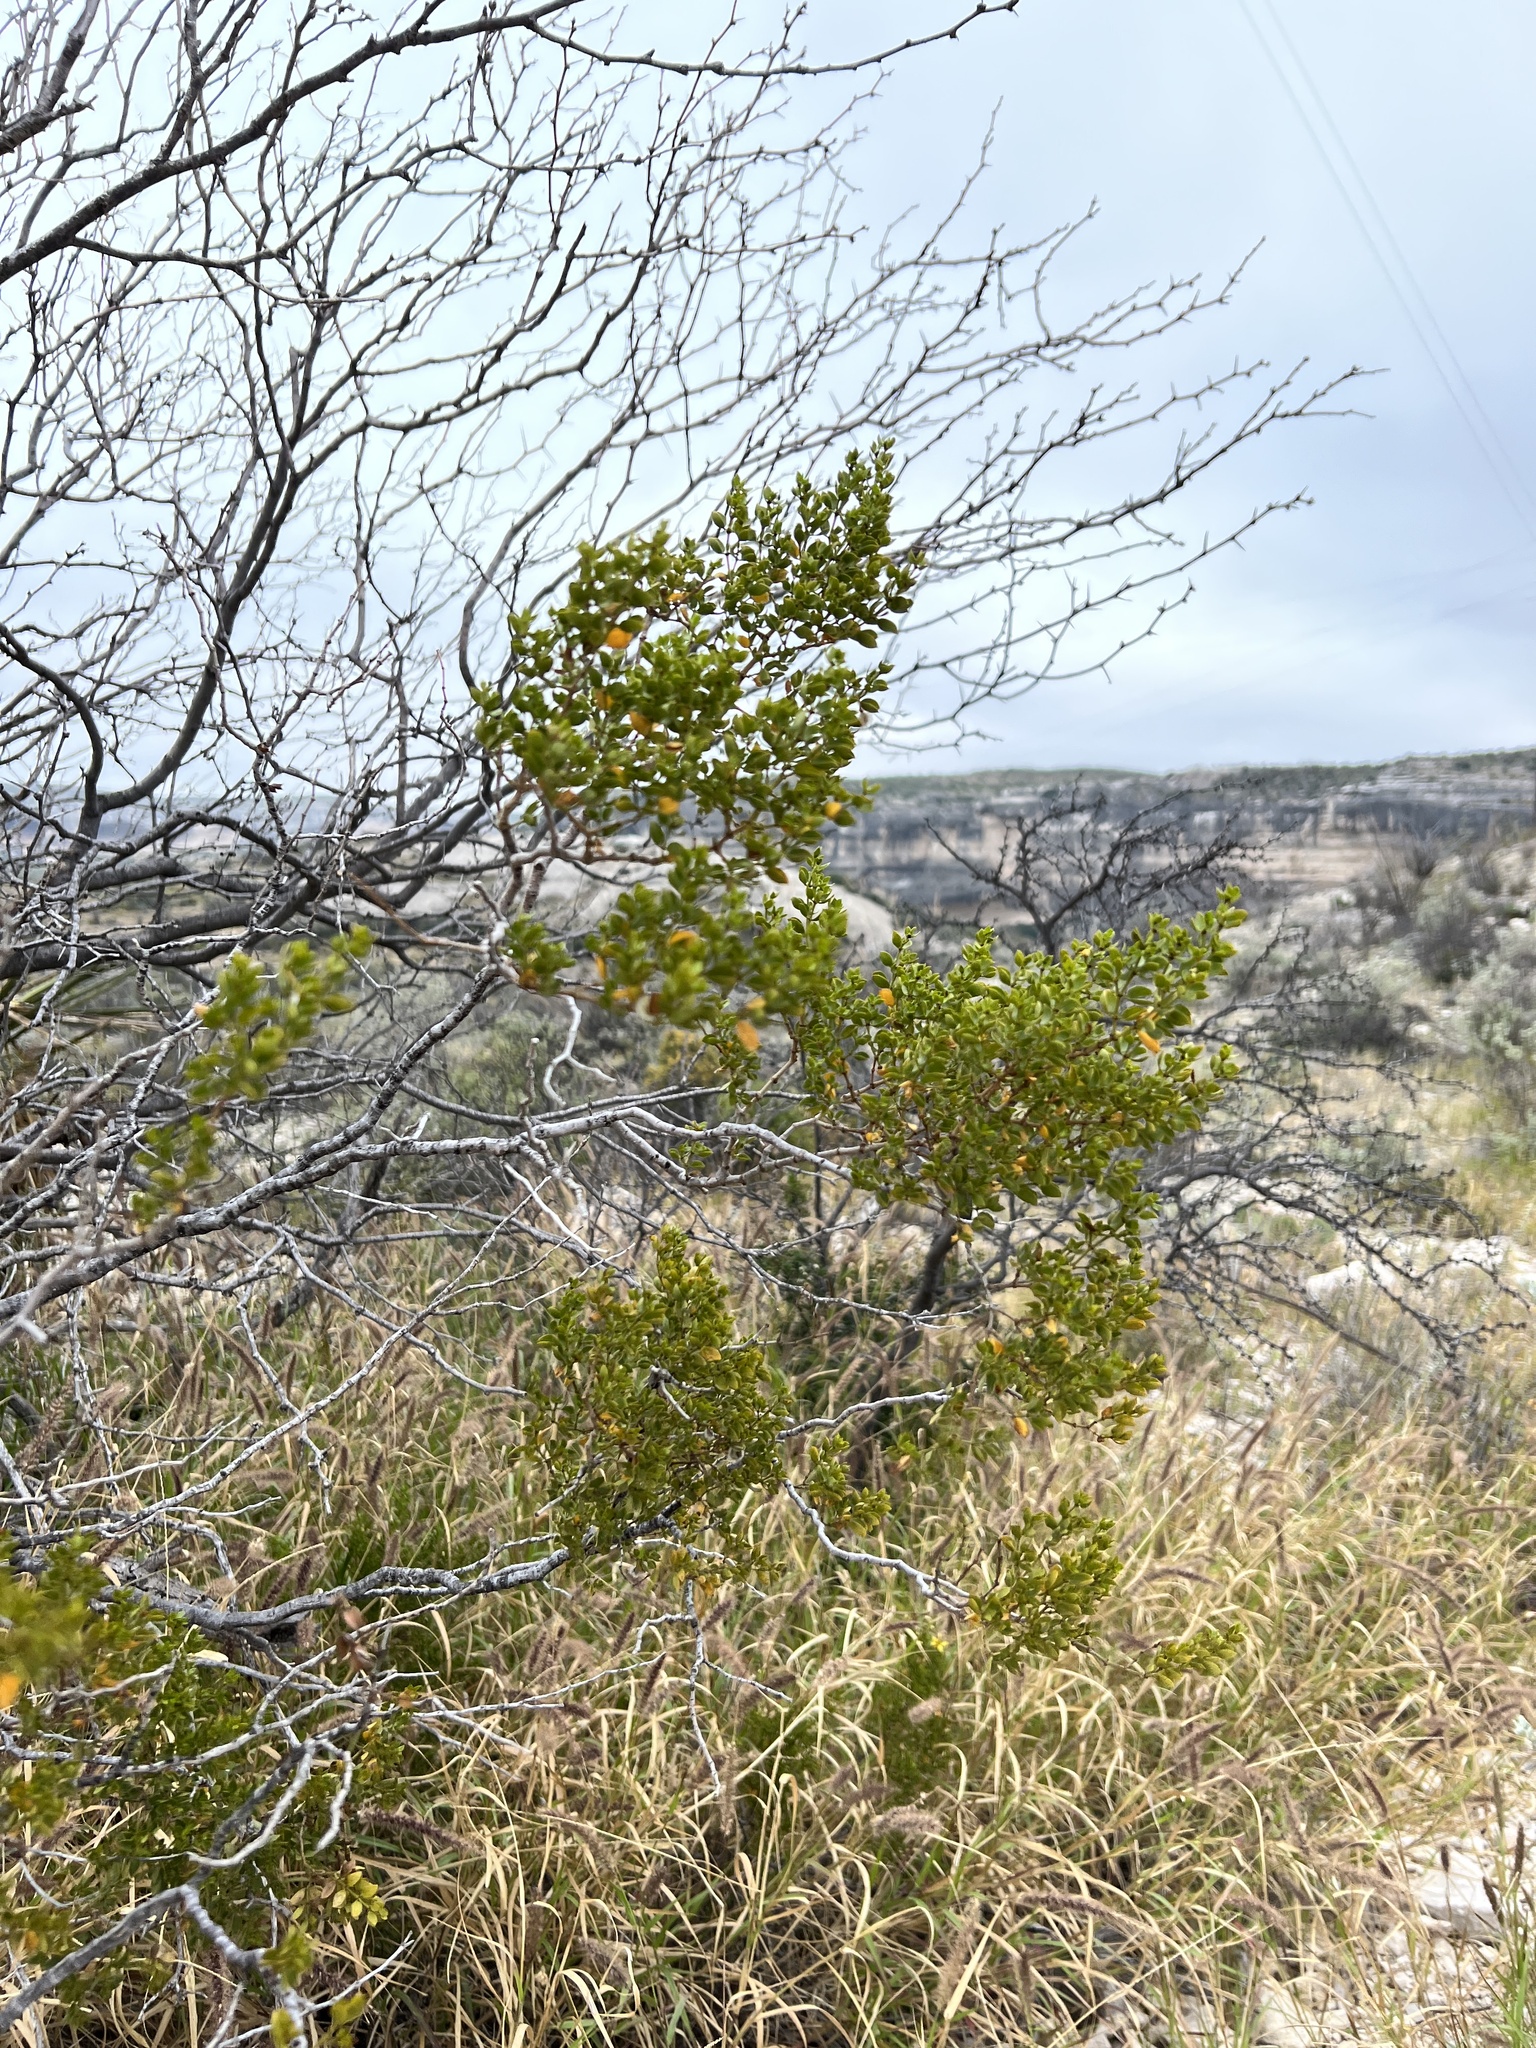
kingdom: Plantae
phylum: Tracheophyta
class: Magnoliopsida
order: Zygophyllales
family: Zygophyllaceae
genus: Larrea
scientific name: Larrea tridentata
